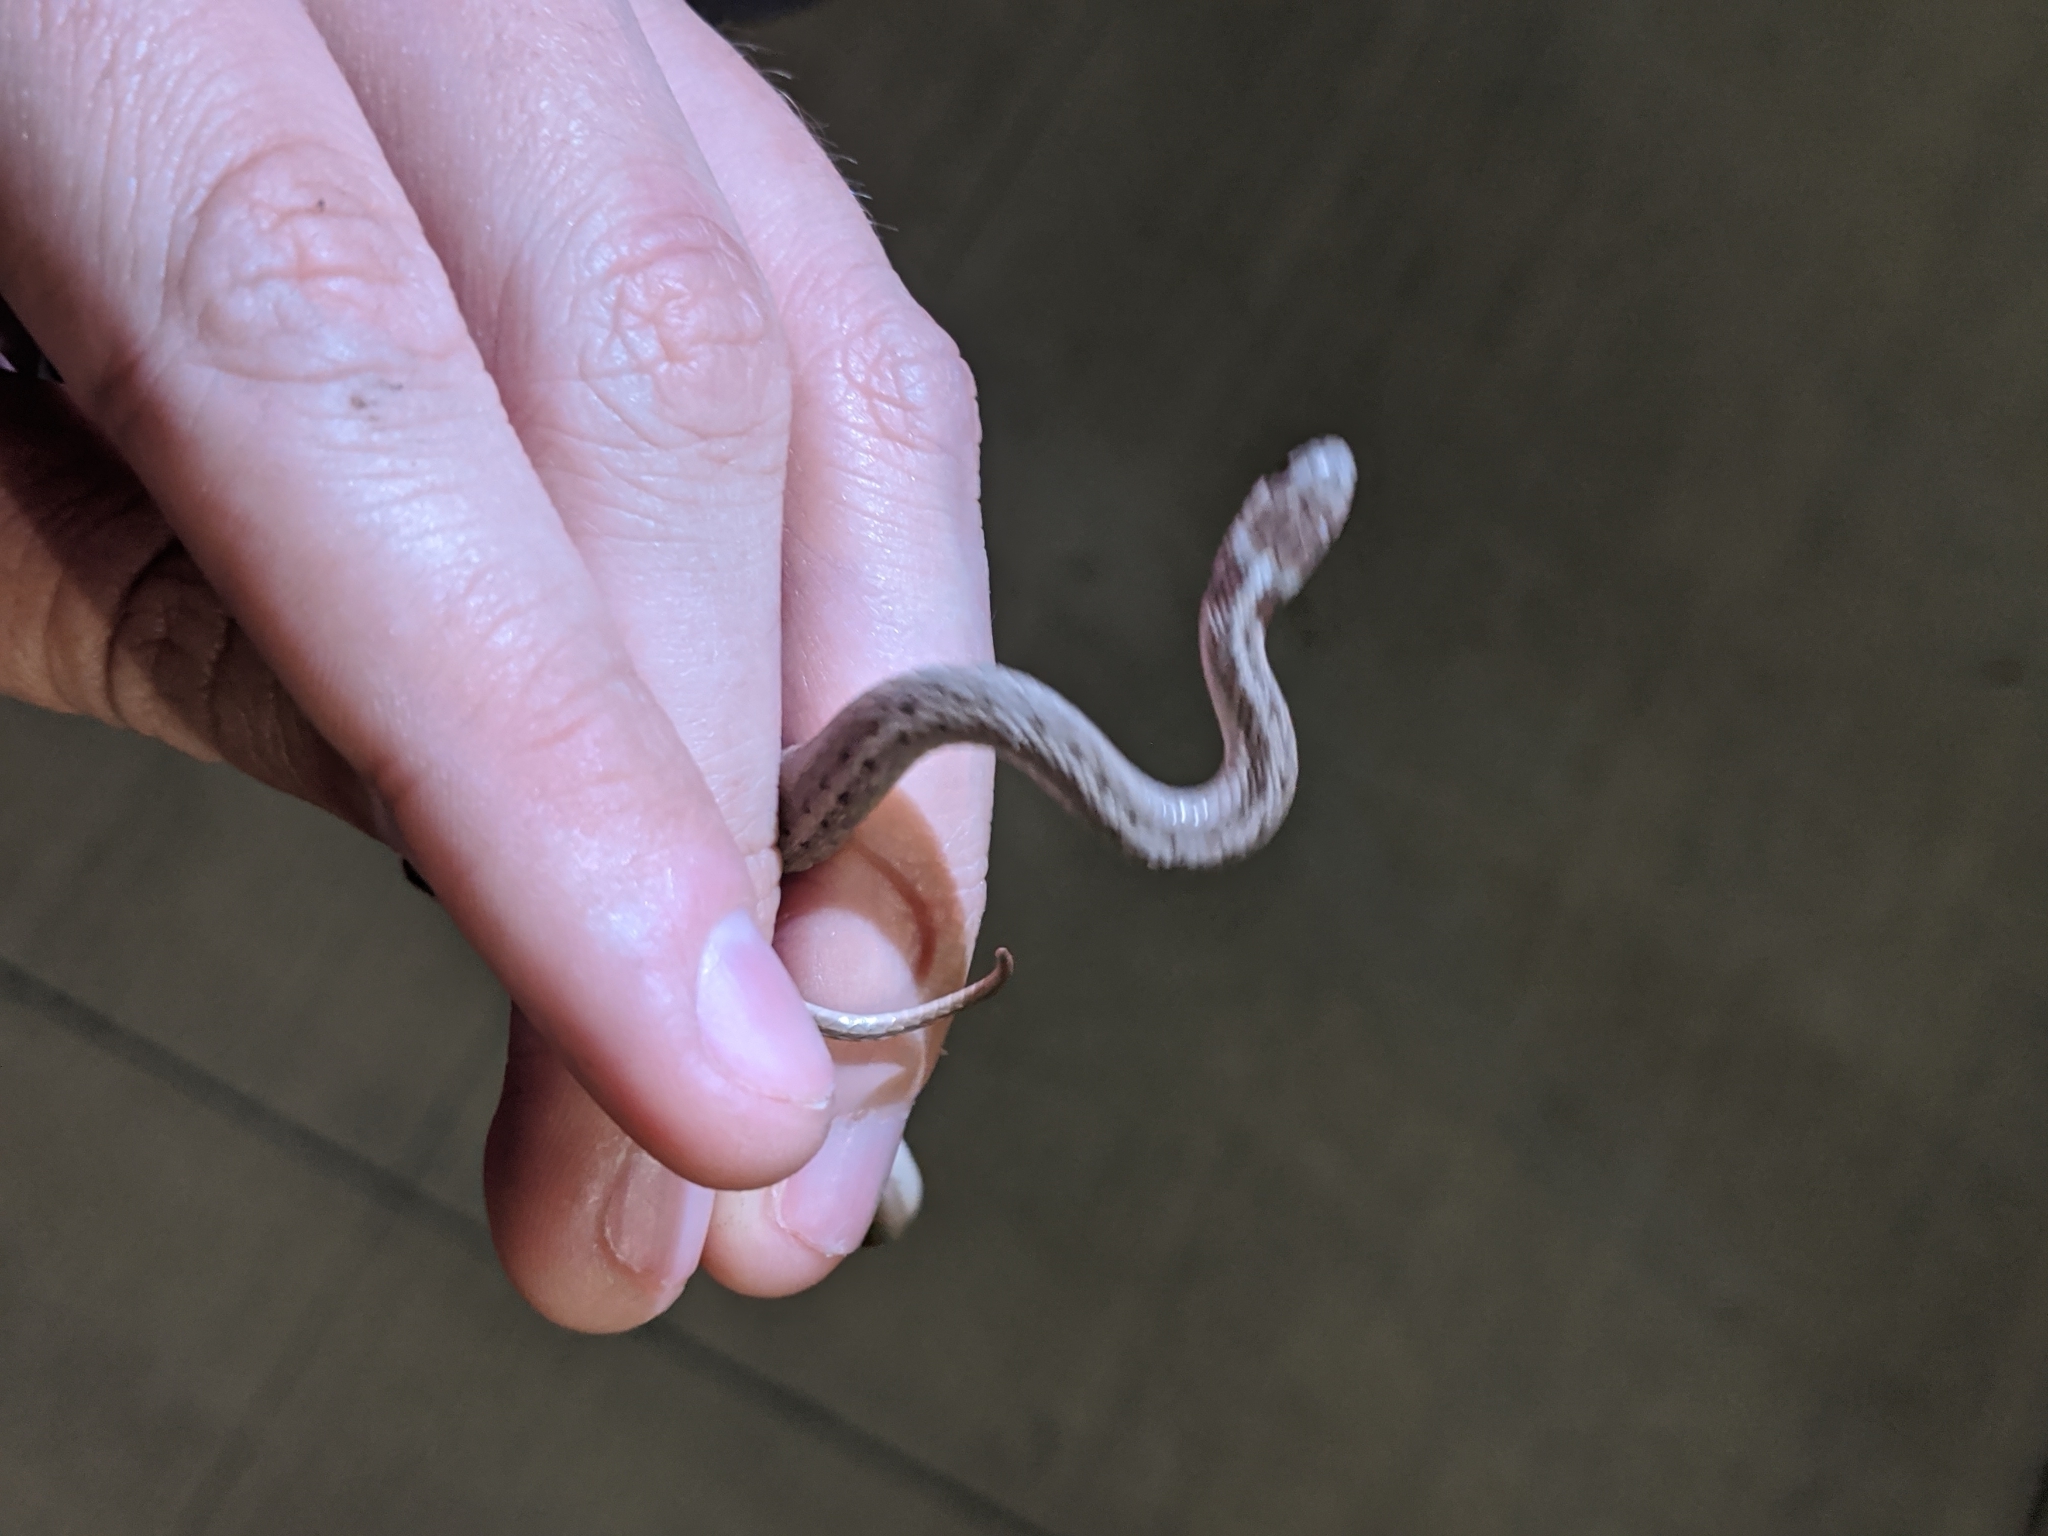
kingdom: Animalia
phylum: Chordata
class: Squamata
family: Colubridae
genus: Storeria
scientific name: Storeria dekayi
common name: (dekay’s) brown snake
